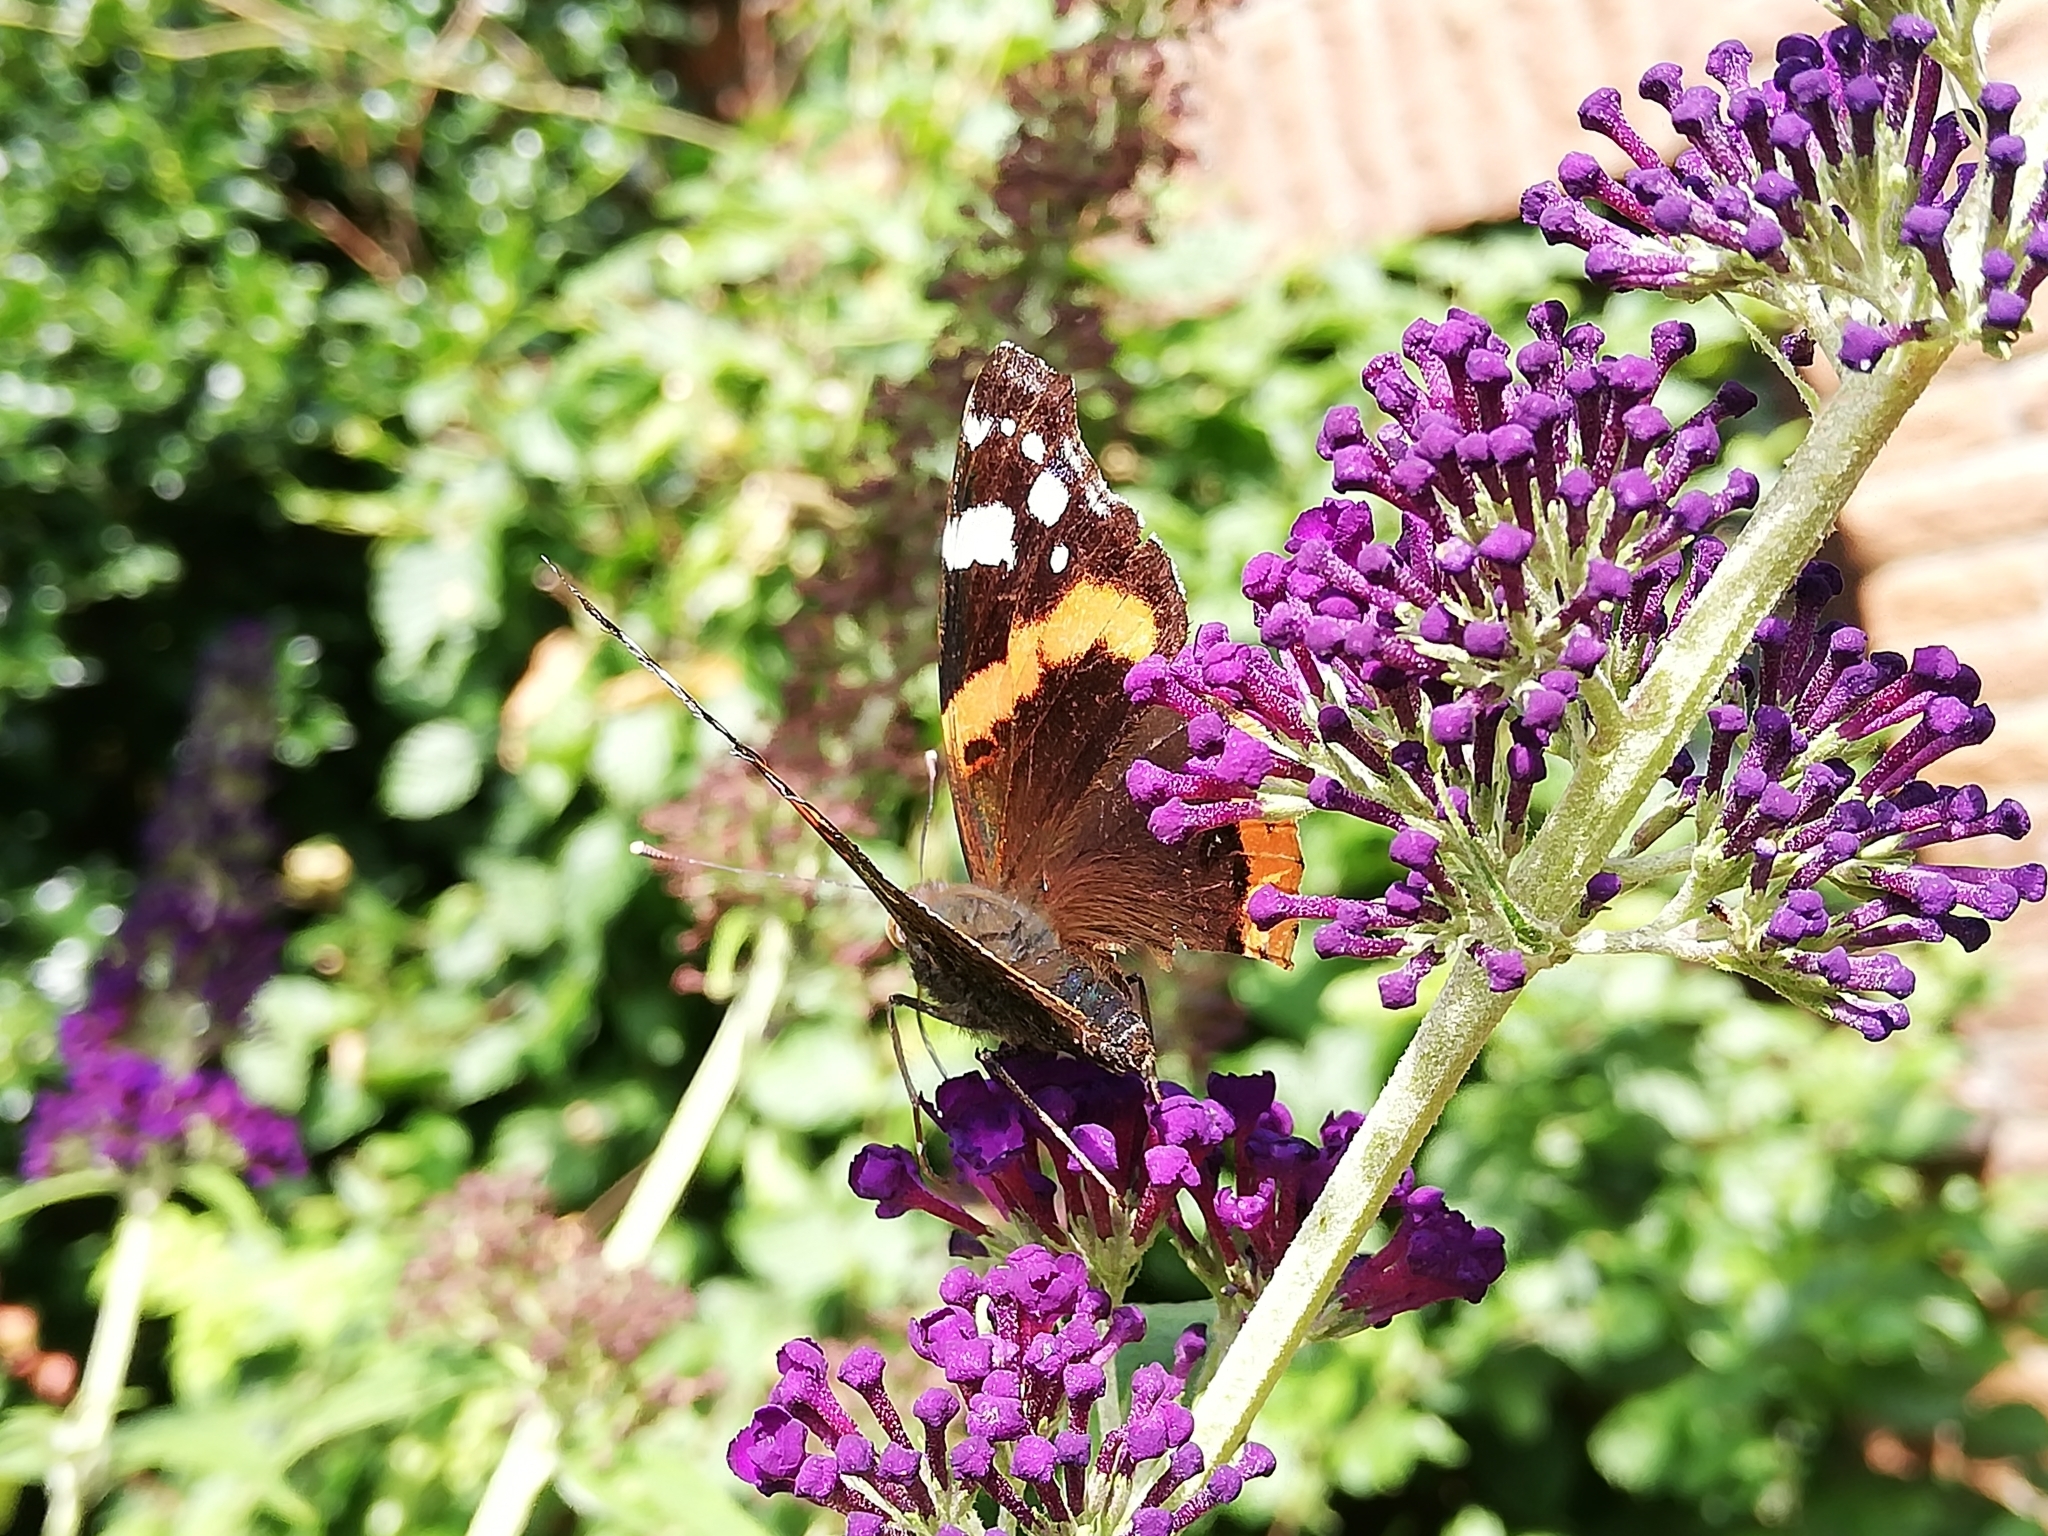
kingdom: Animalia
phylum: Arthropoda
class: Insecta
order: Lepidoptera
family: Nymphalidae
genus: Vanessa
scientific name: Vanessa atalanta
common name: Red admiral
